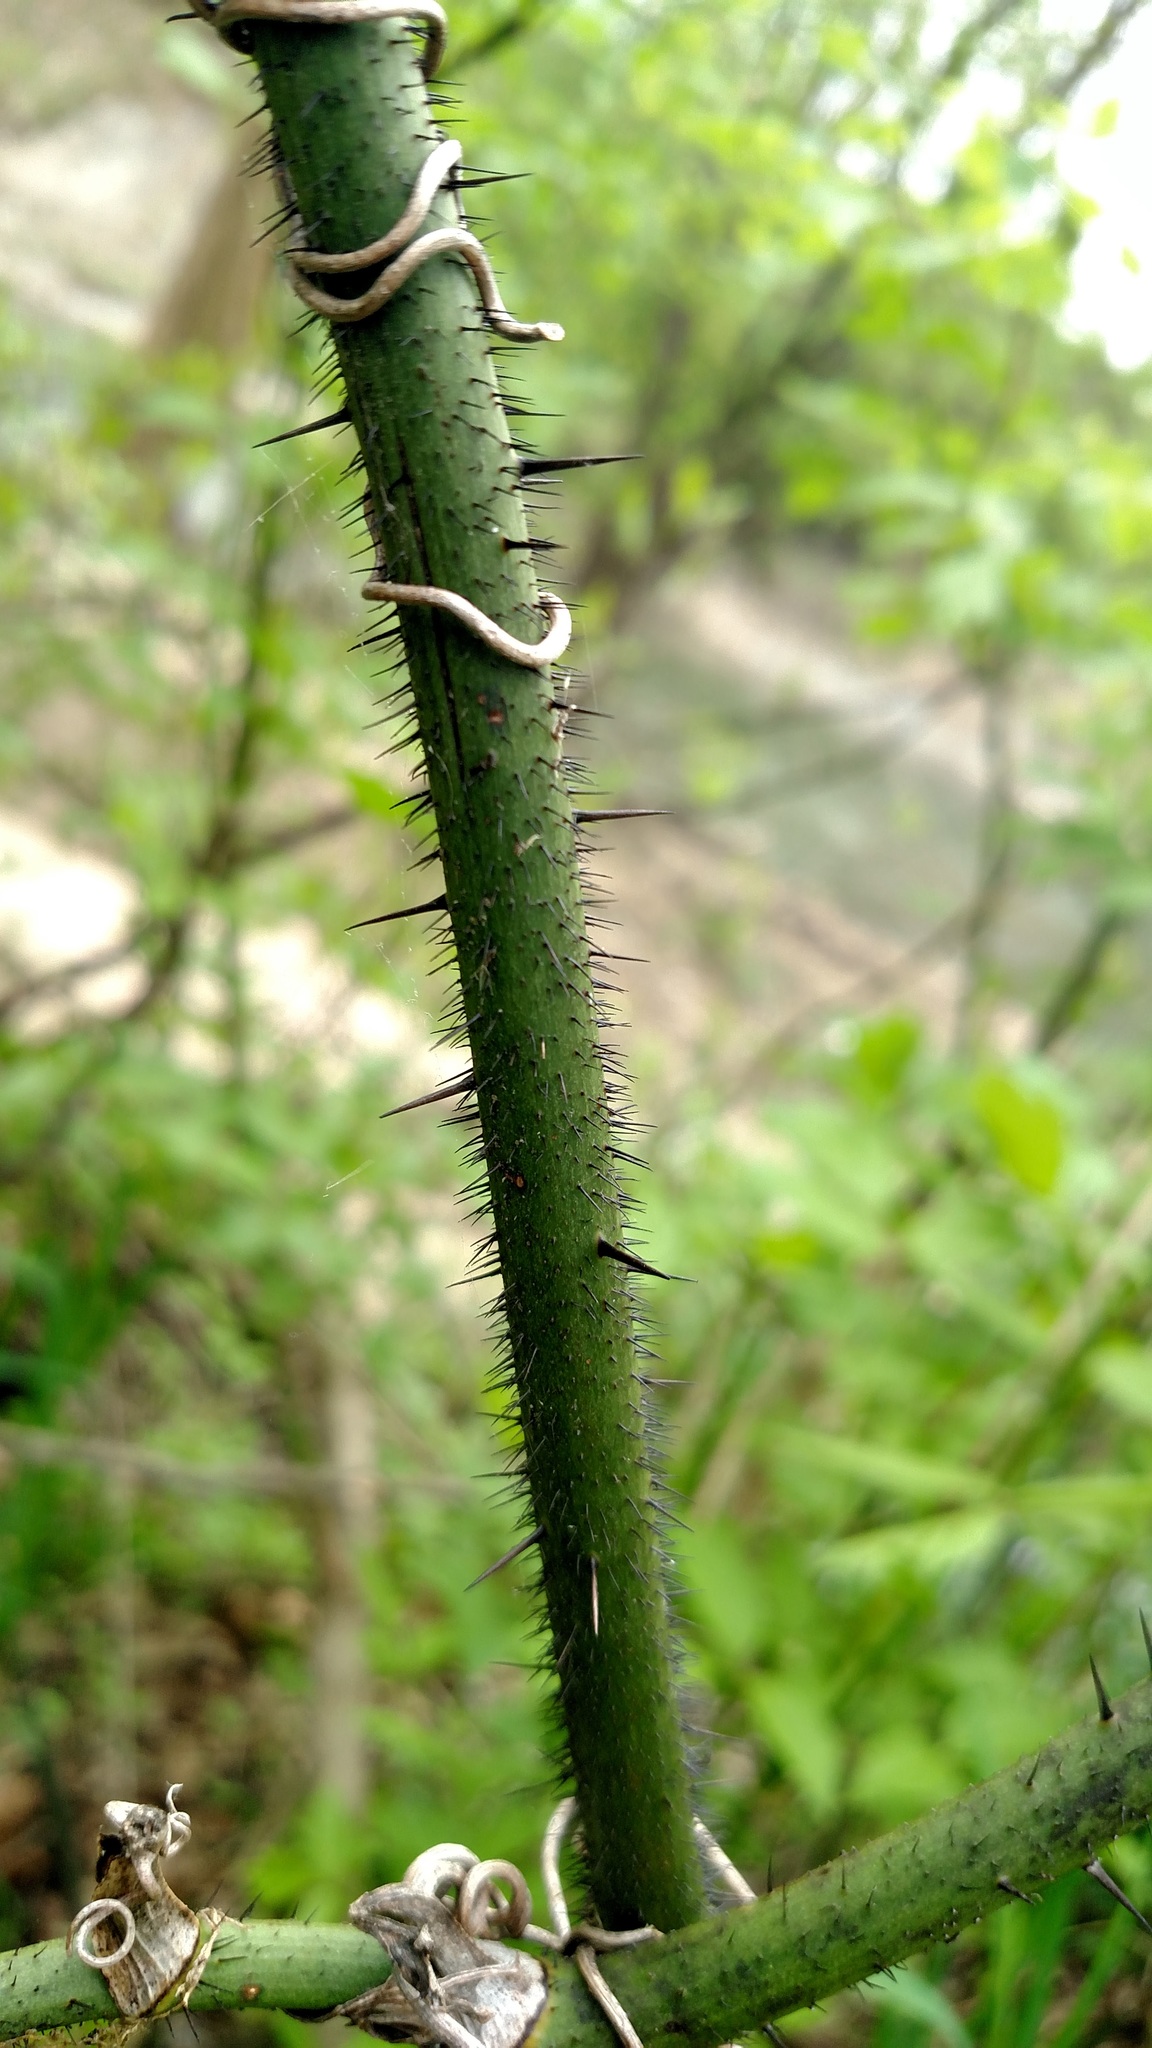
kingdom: Plantae
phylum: Tracheophyta
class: Liliopsida
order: Liliales
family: Smilacaceae
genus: Smilax
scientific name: Smilax tamnoides
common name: Hellfetter
